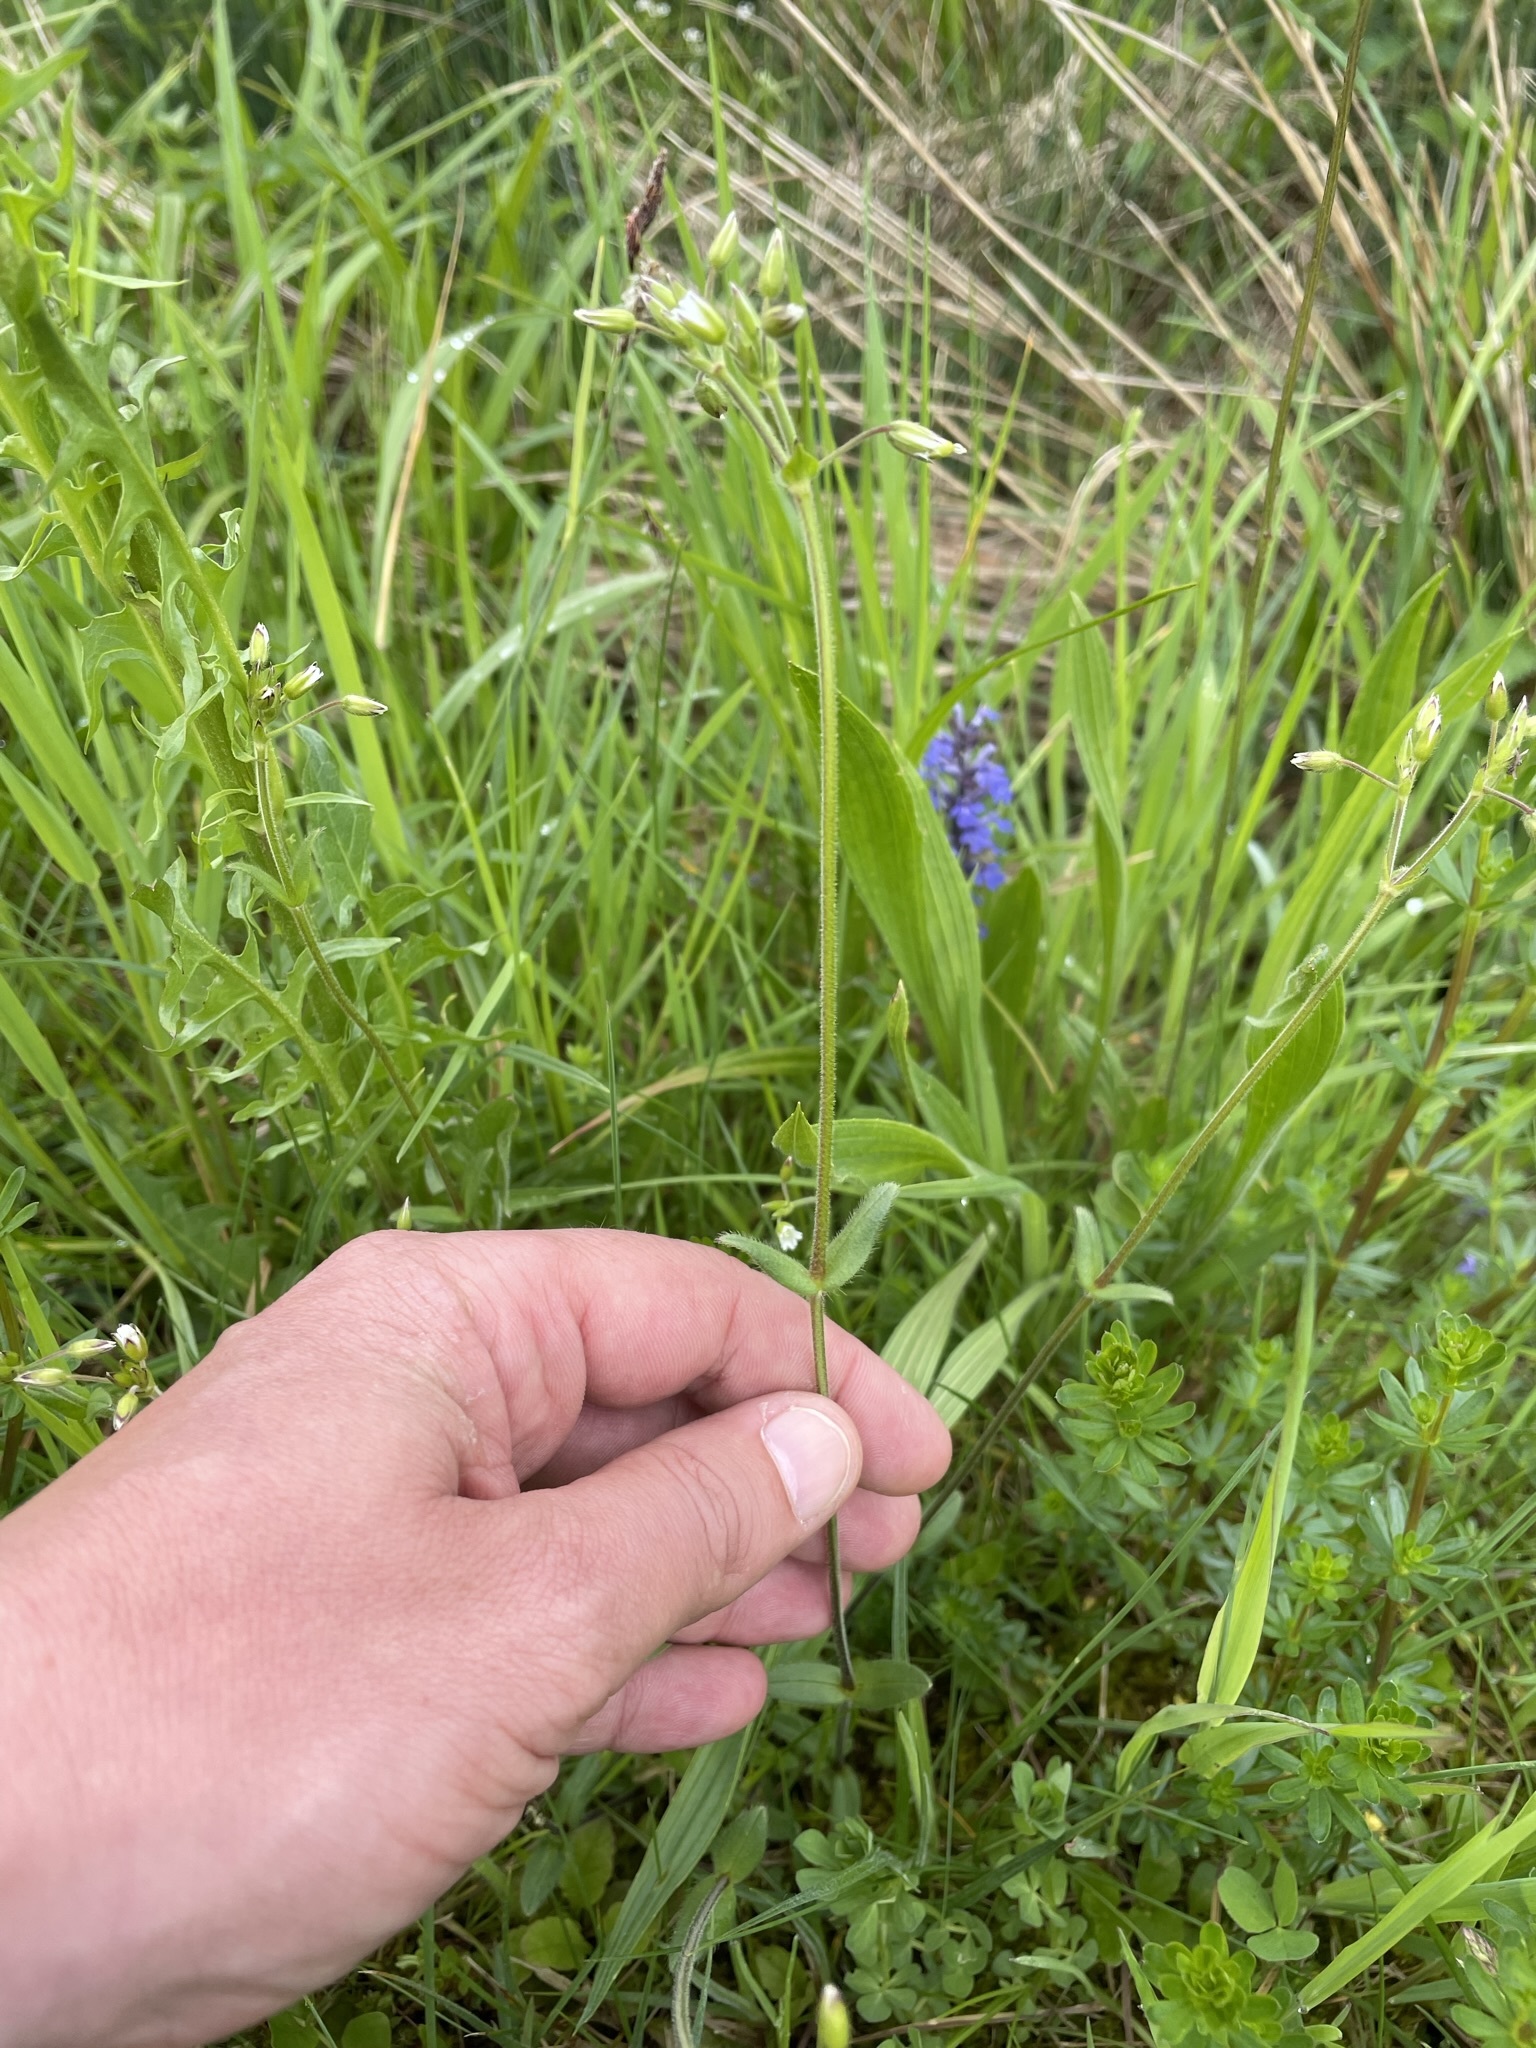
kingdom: Plantae
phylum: Tracheophyta
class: Magnoliopsida
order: Caryophyllales
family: Caryophyllaceae
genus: Cerastium
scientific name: Cerastium holosteoides
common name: Big chickweed
